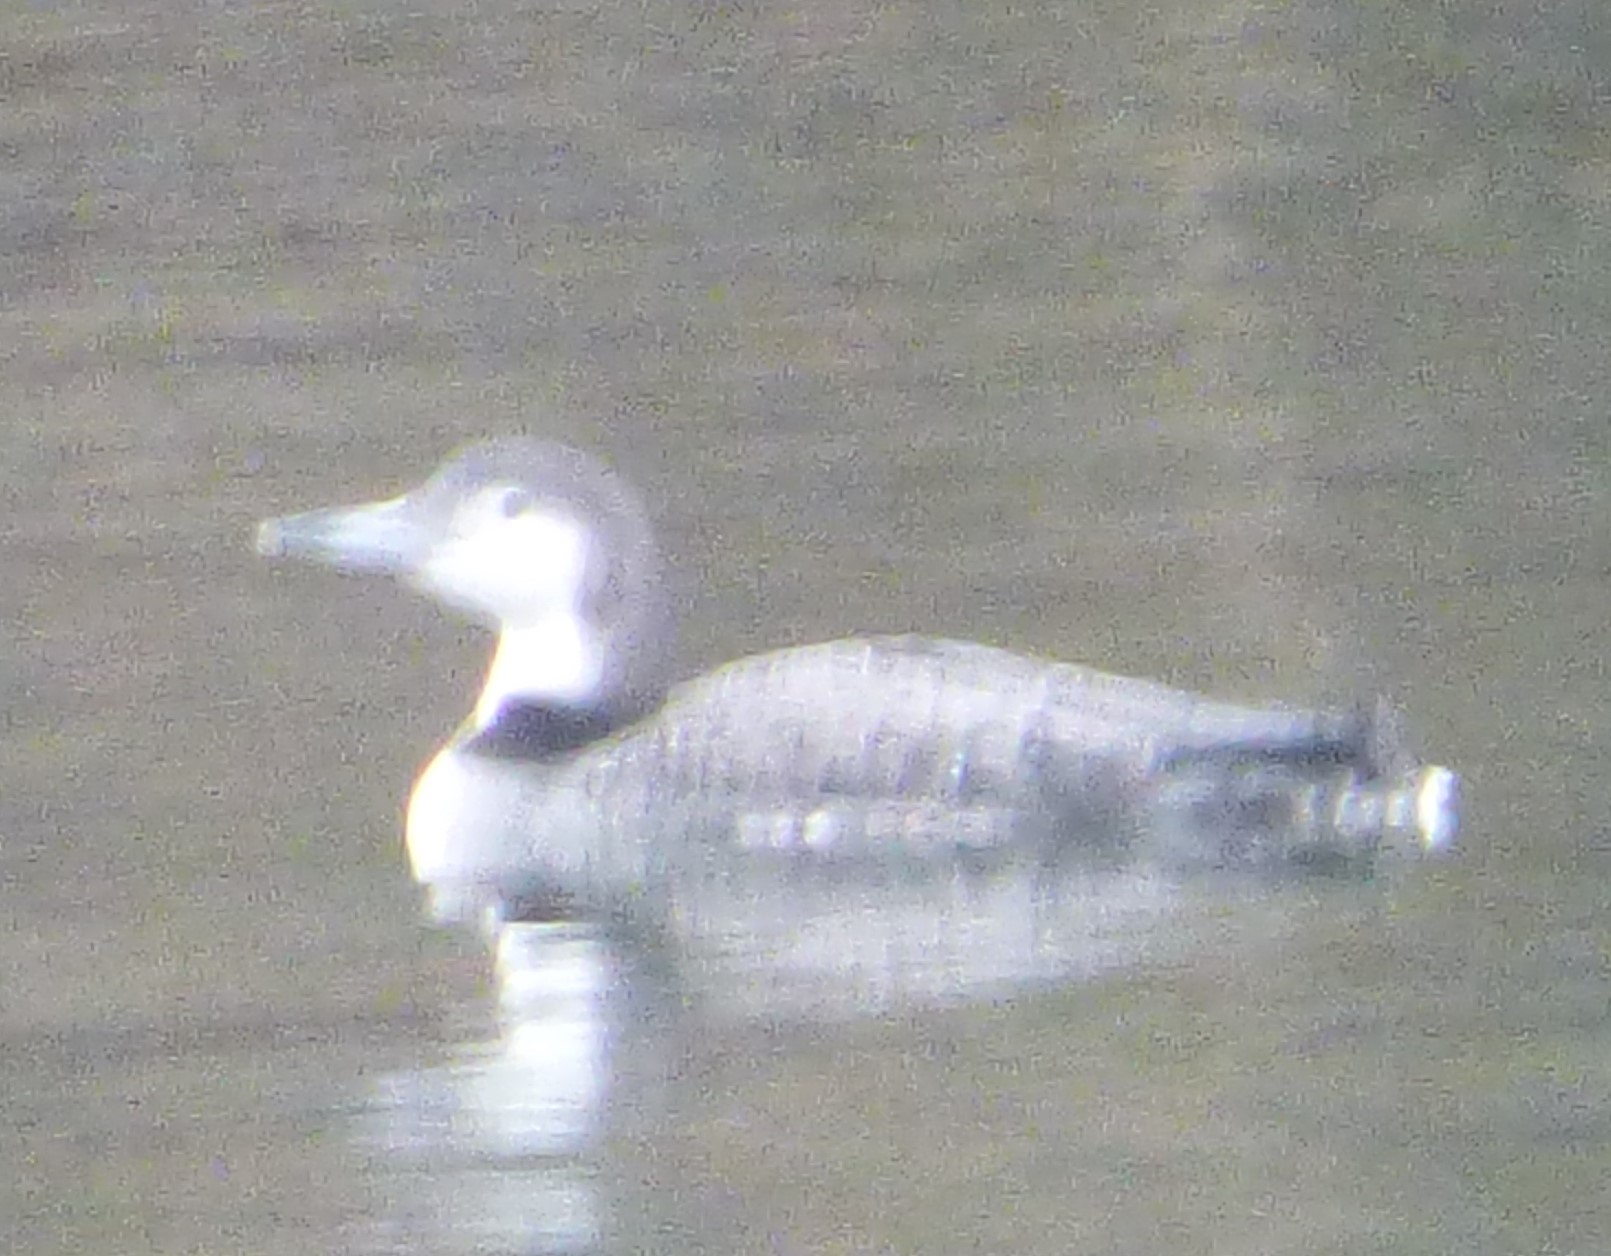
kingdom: Animalia
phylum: Chordata
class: Aves
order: Gaviiformes
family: Gaviidae
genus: Gavia
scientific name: Gavia immer
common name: Common loon
